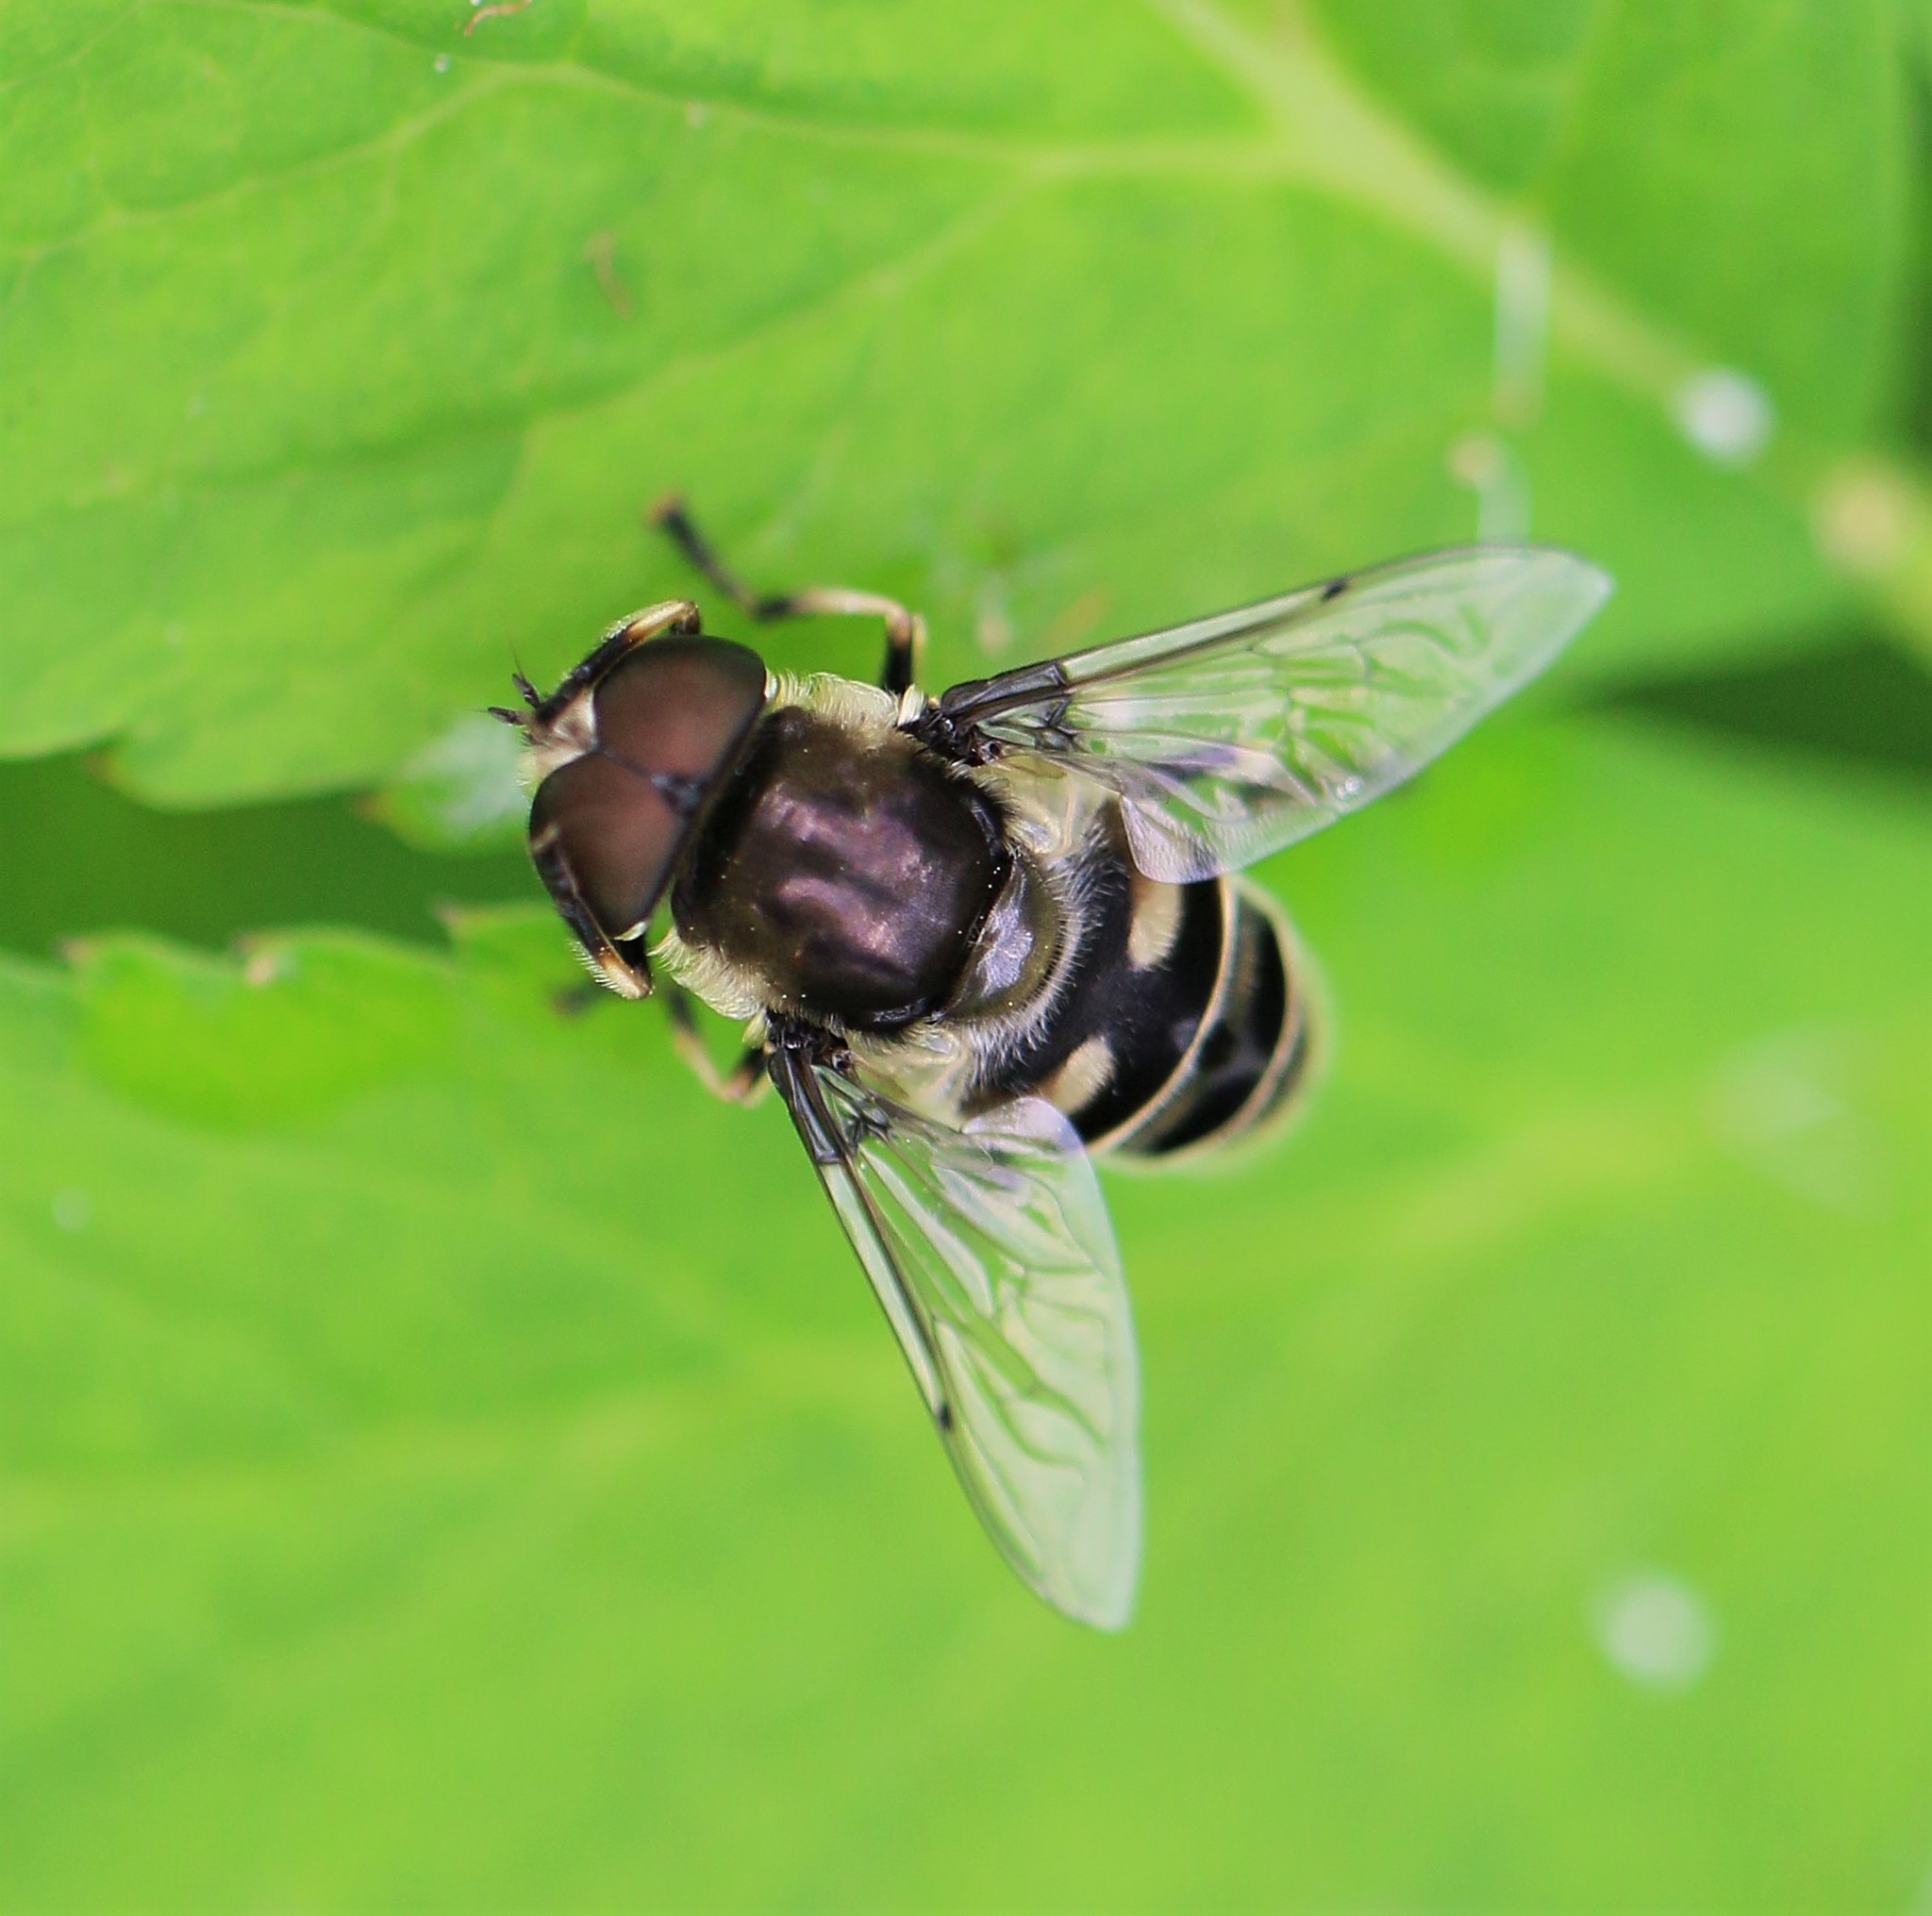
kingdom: Animalia
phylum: Arthropoda
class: Insecta
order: Diptera
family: Syrphidae
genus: Eristalis
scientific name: Eristalis dimidiata
